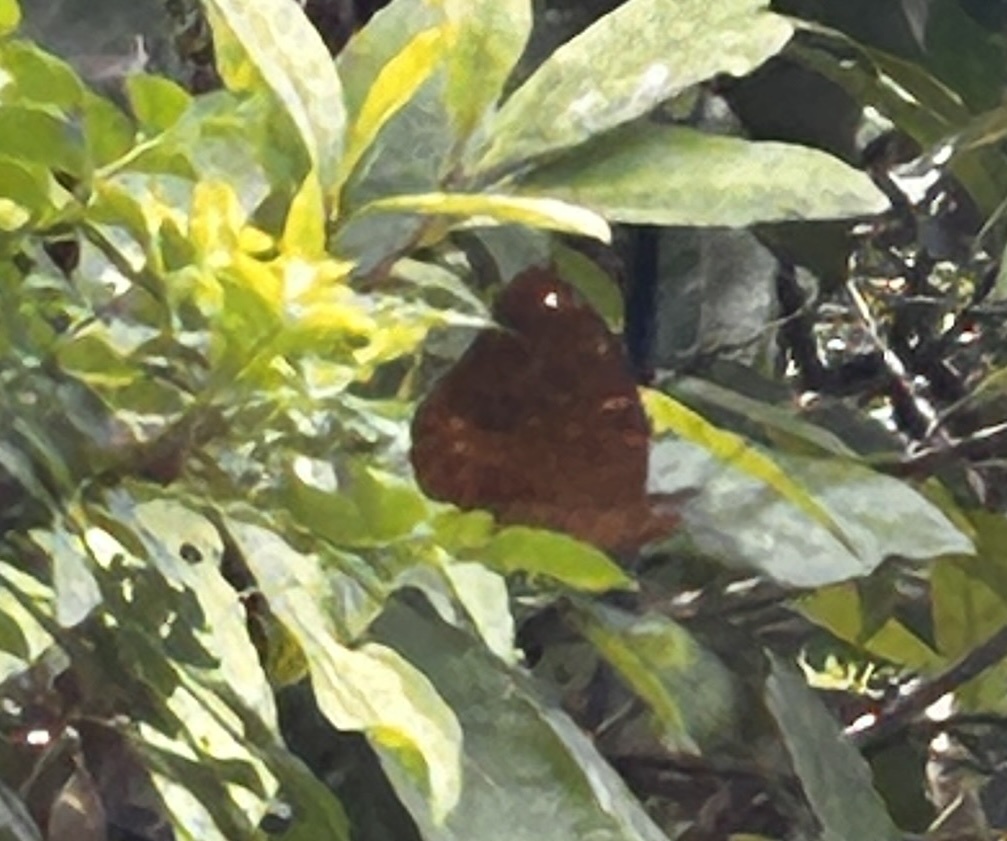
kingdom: Animalia
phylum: Arthropoda
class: Insecta
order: Lepidoptera
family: Nymphalidae
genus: Lexias
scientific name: Lexias pardalis
